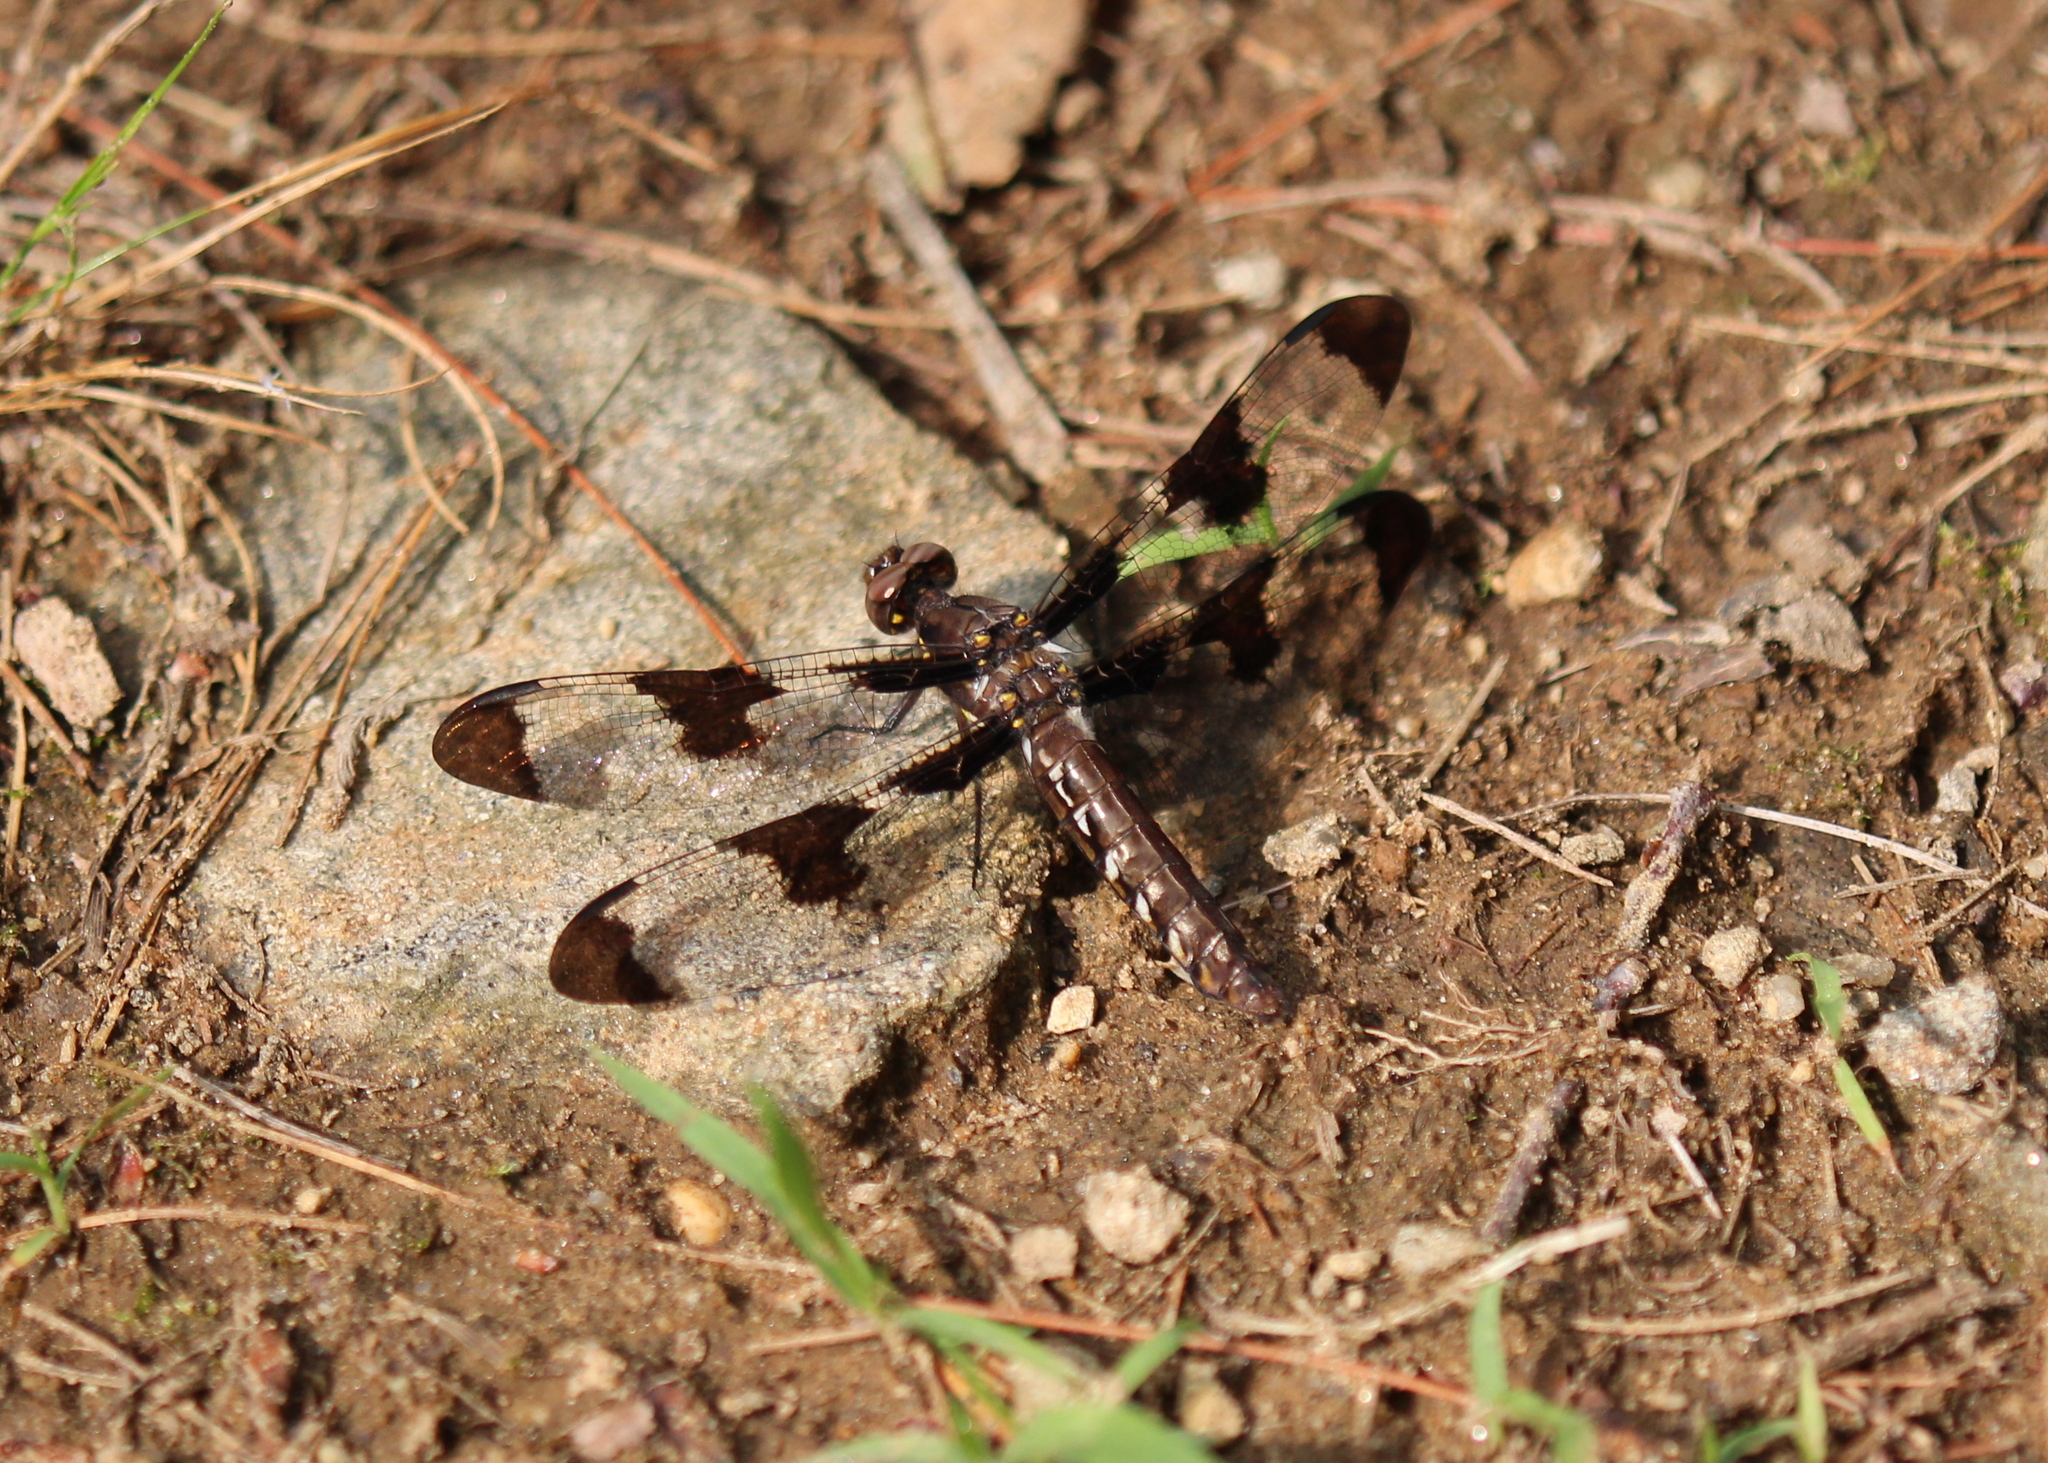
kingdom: Animalia
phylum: Arthropoda
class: Insecta
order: Odonata
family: Libellulidae
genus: Plathemis
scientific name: Plathemis lydia
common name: Common whitetail
